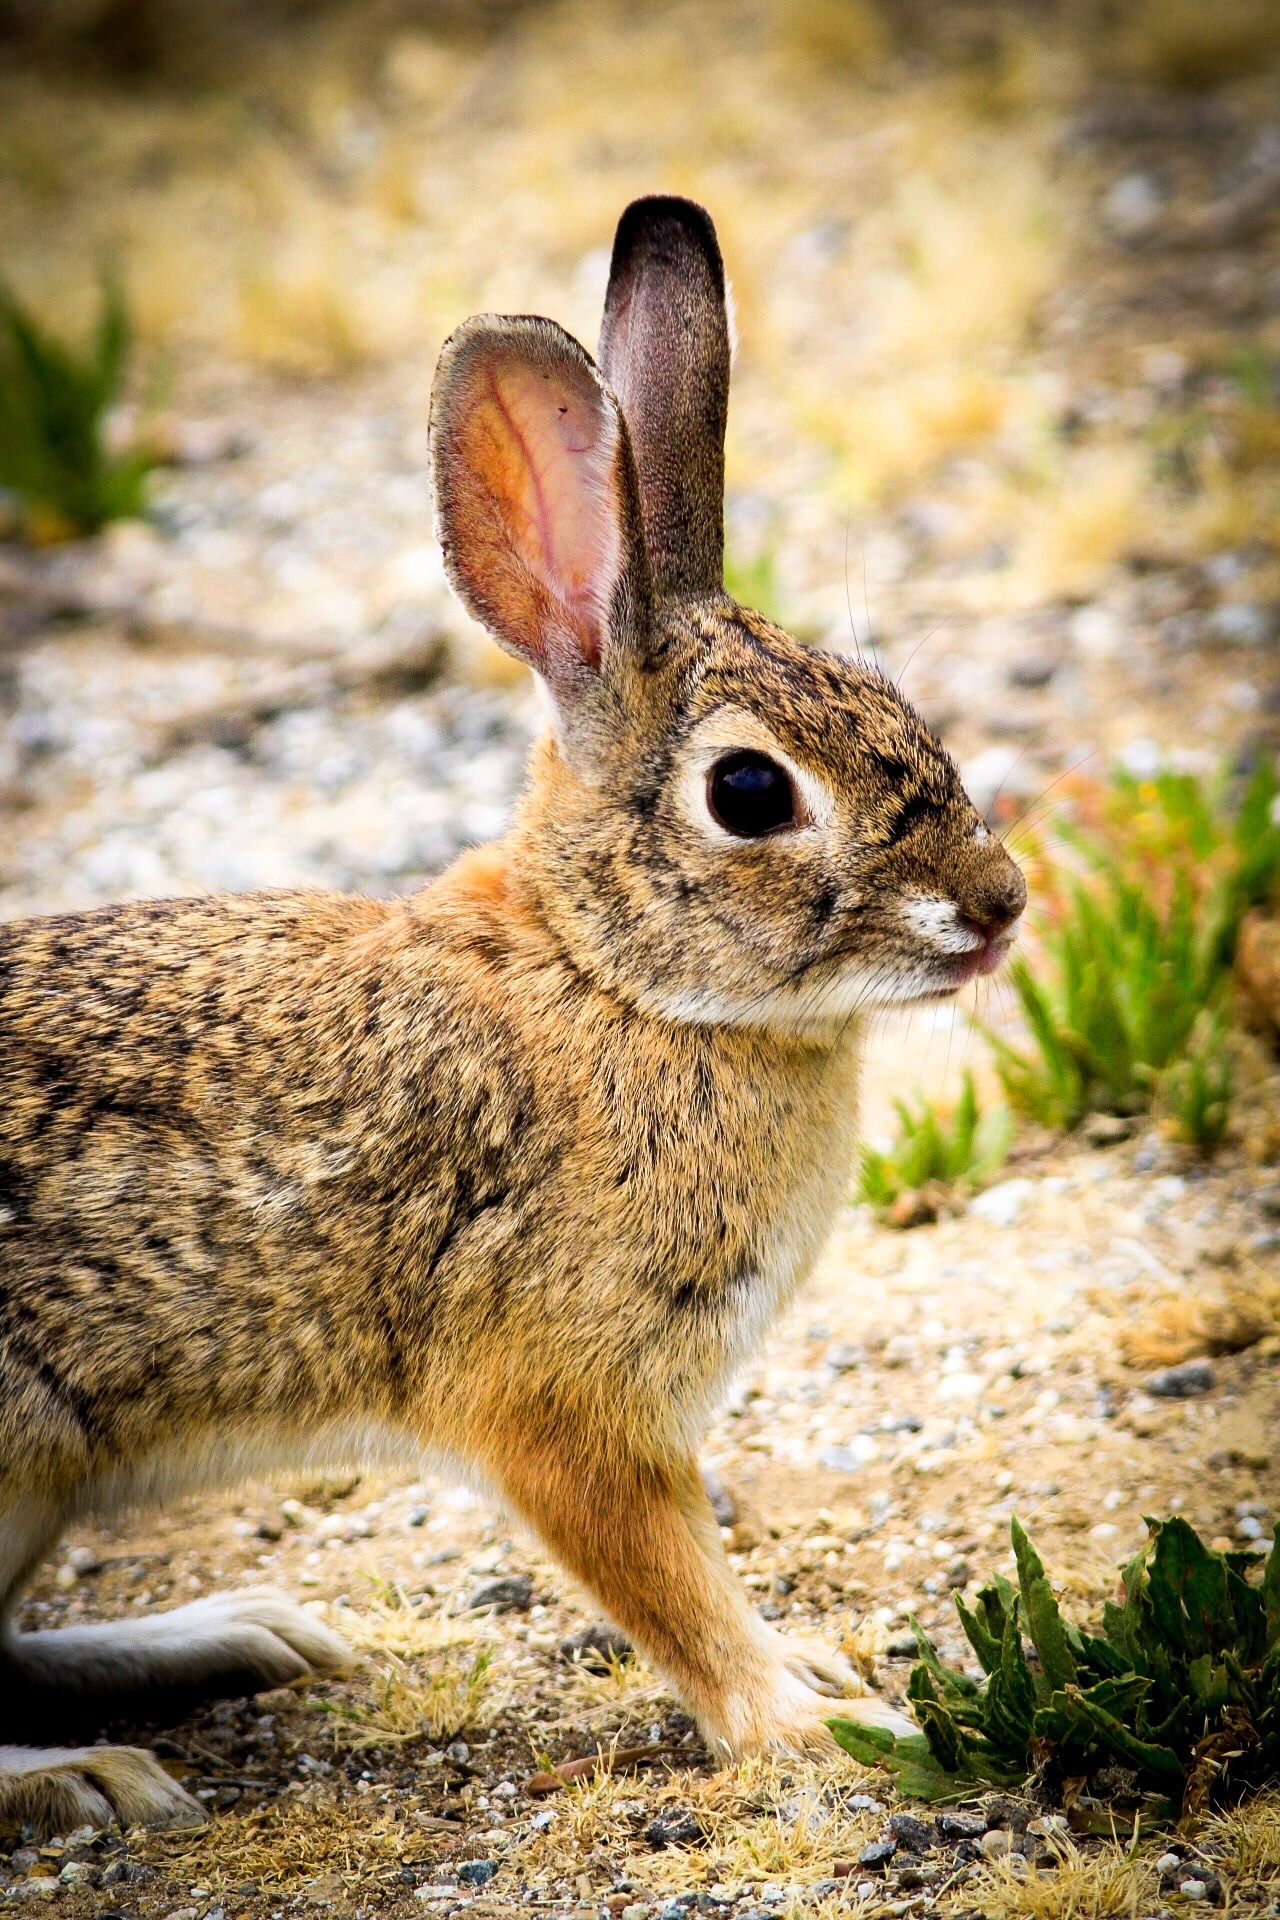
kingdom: Animalia
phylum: Chordata
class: Mammalia
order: Lagomorpha
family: Leporidae
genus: Sylvilagus
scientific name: Sylvilagus audubonii
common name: Desert cottontail
